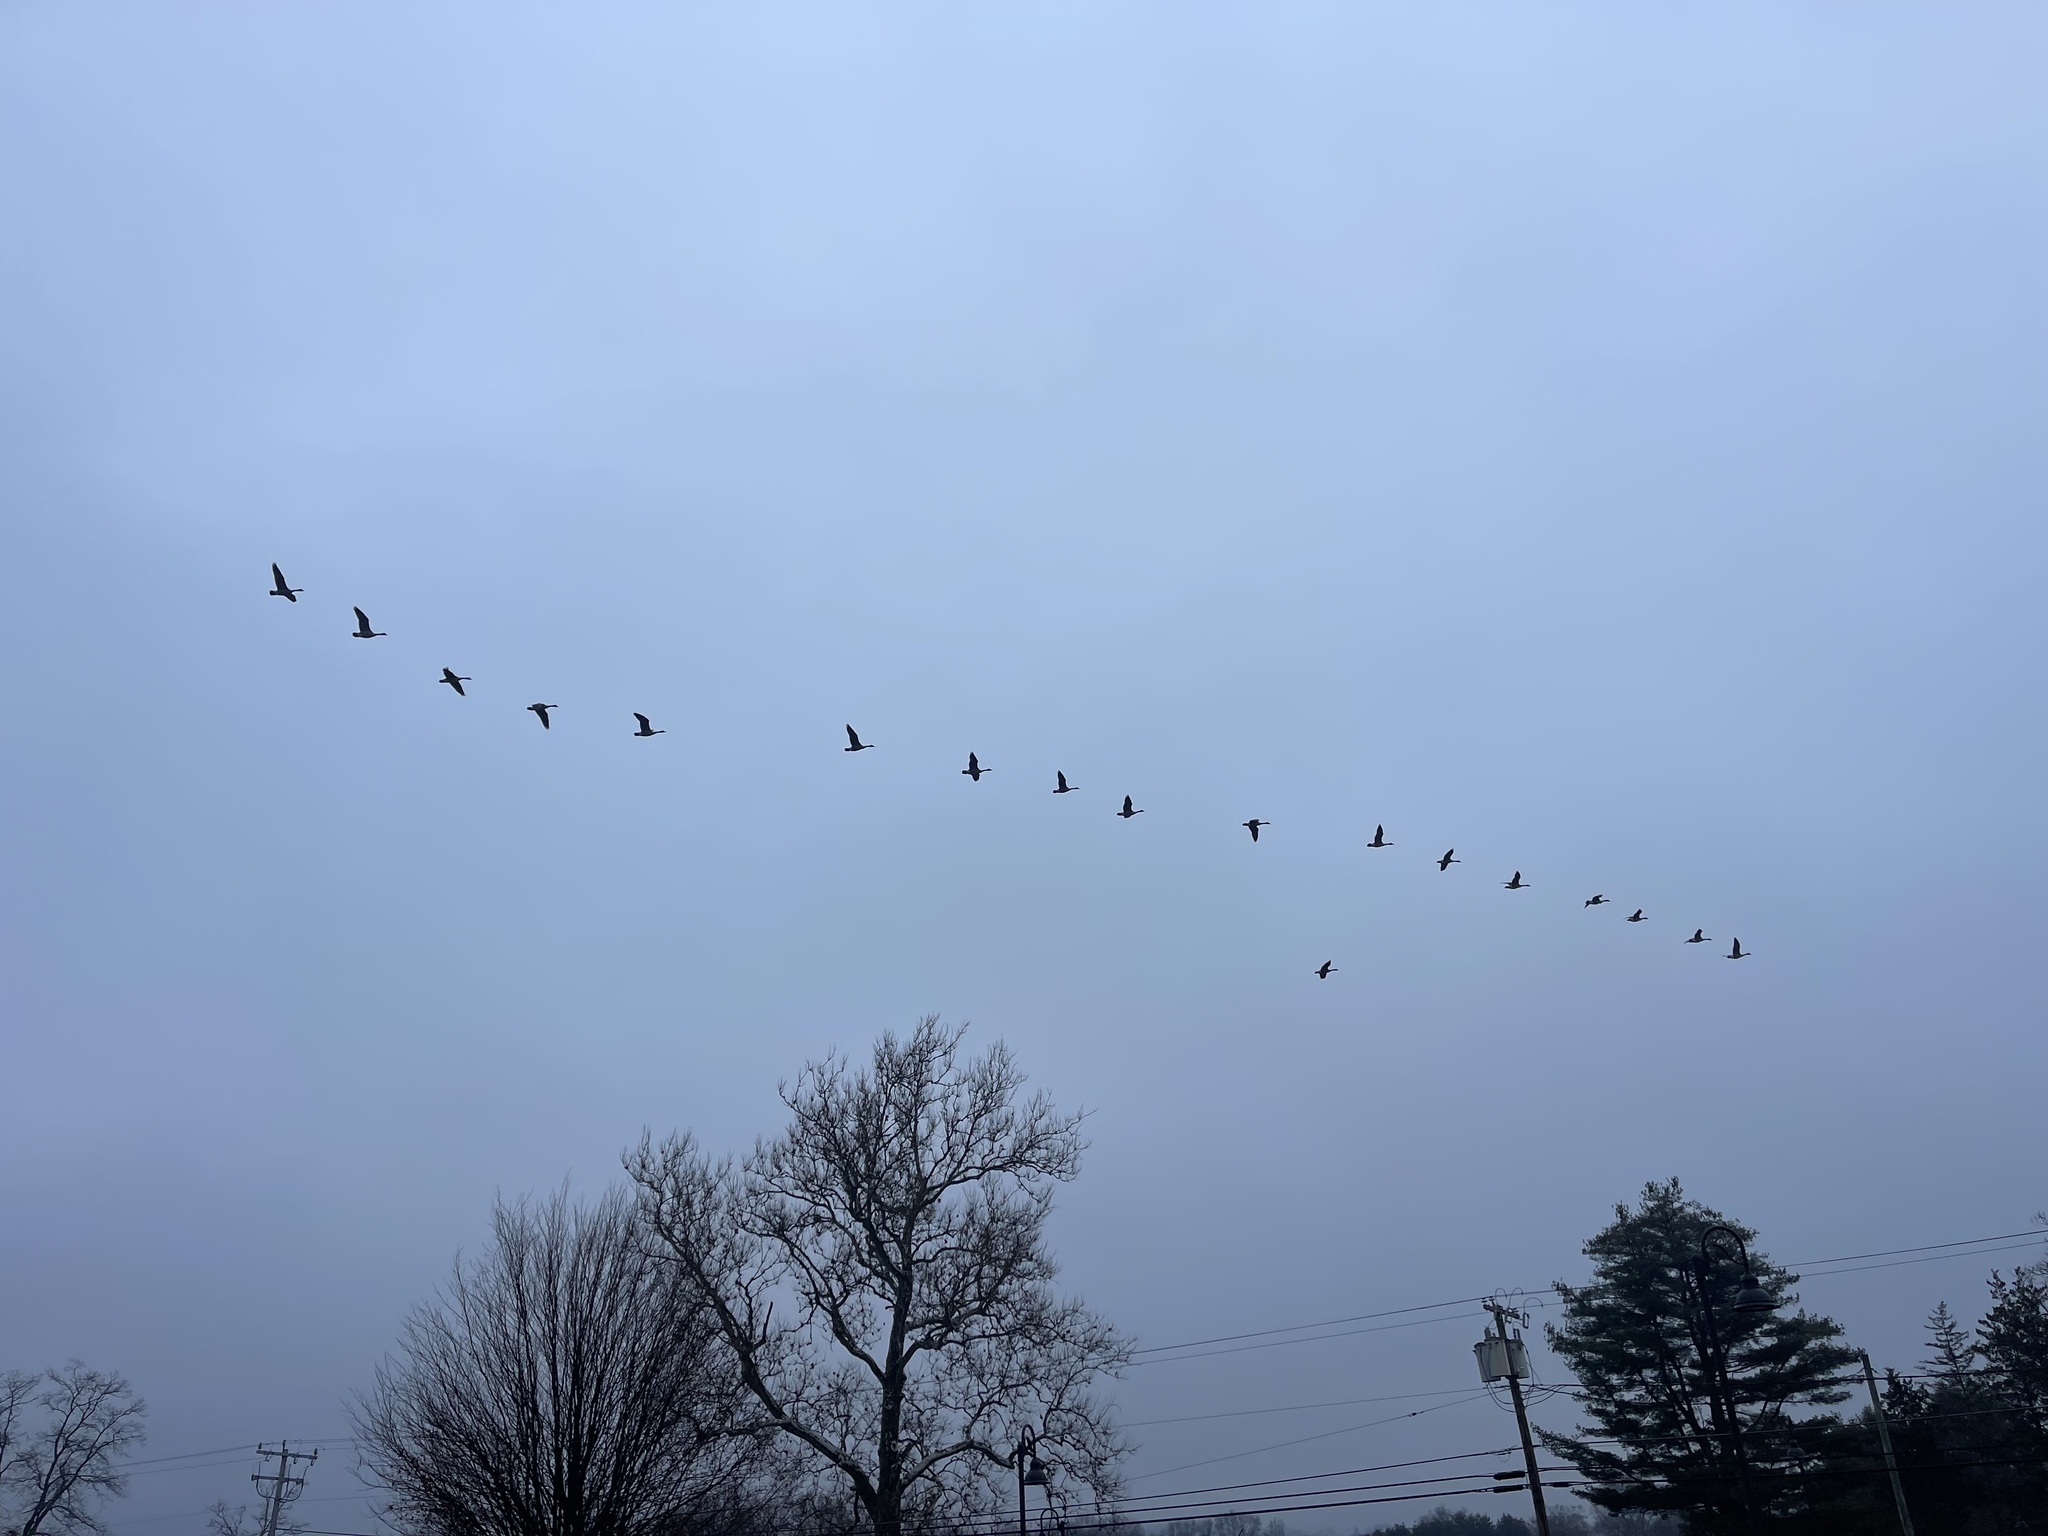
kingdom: Animalia
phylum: Chordata
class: Aves
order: Anseriformes
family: Anatidae
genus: Branta
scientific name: Branta canadensis
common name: Canada goose
